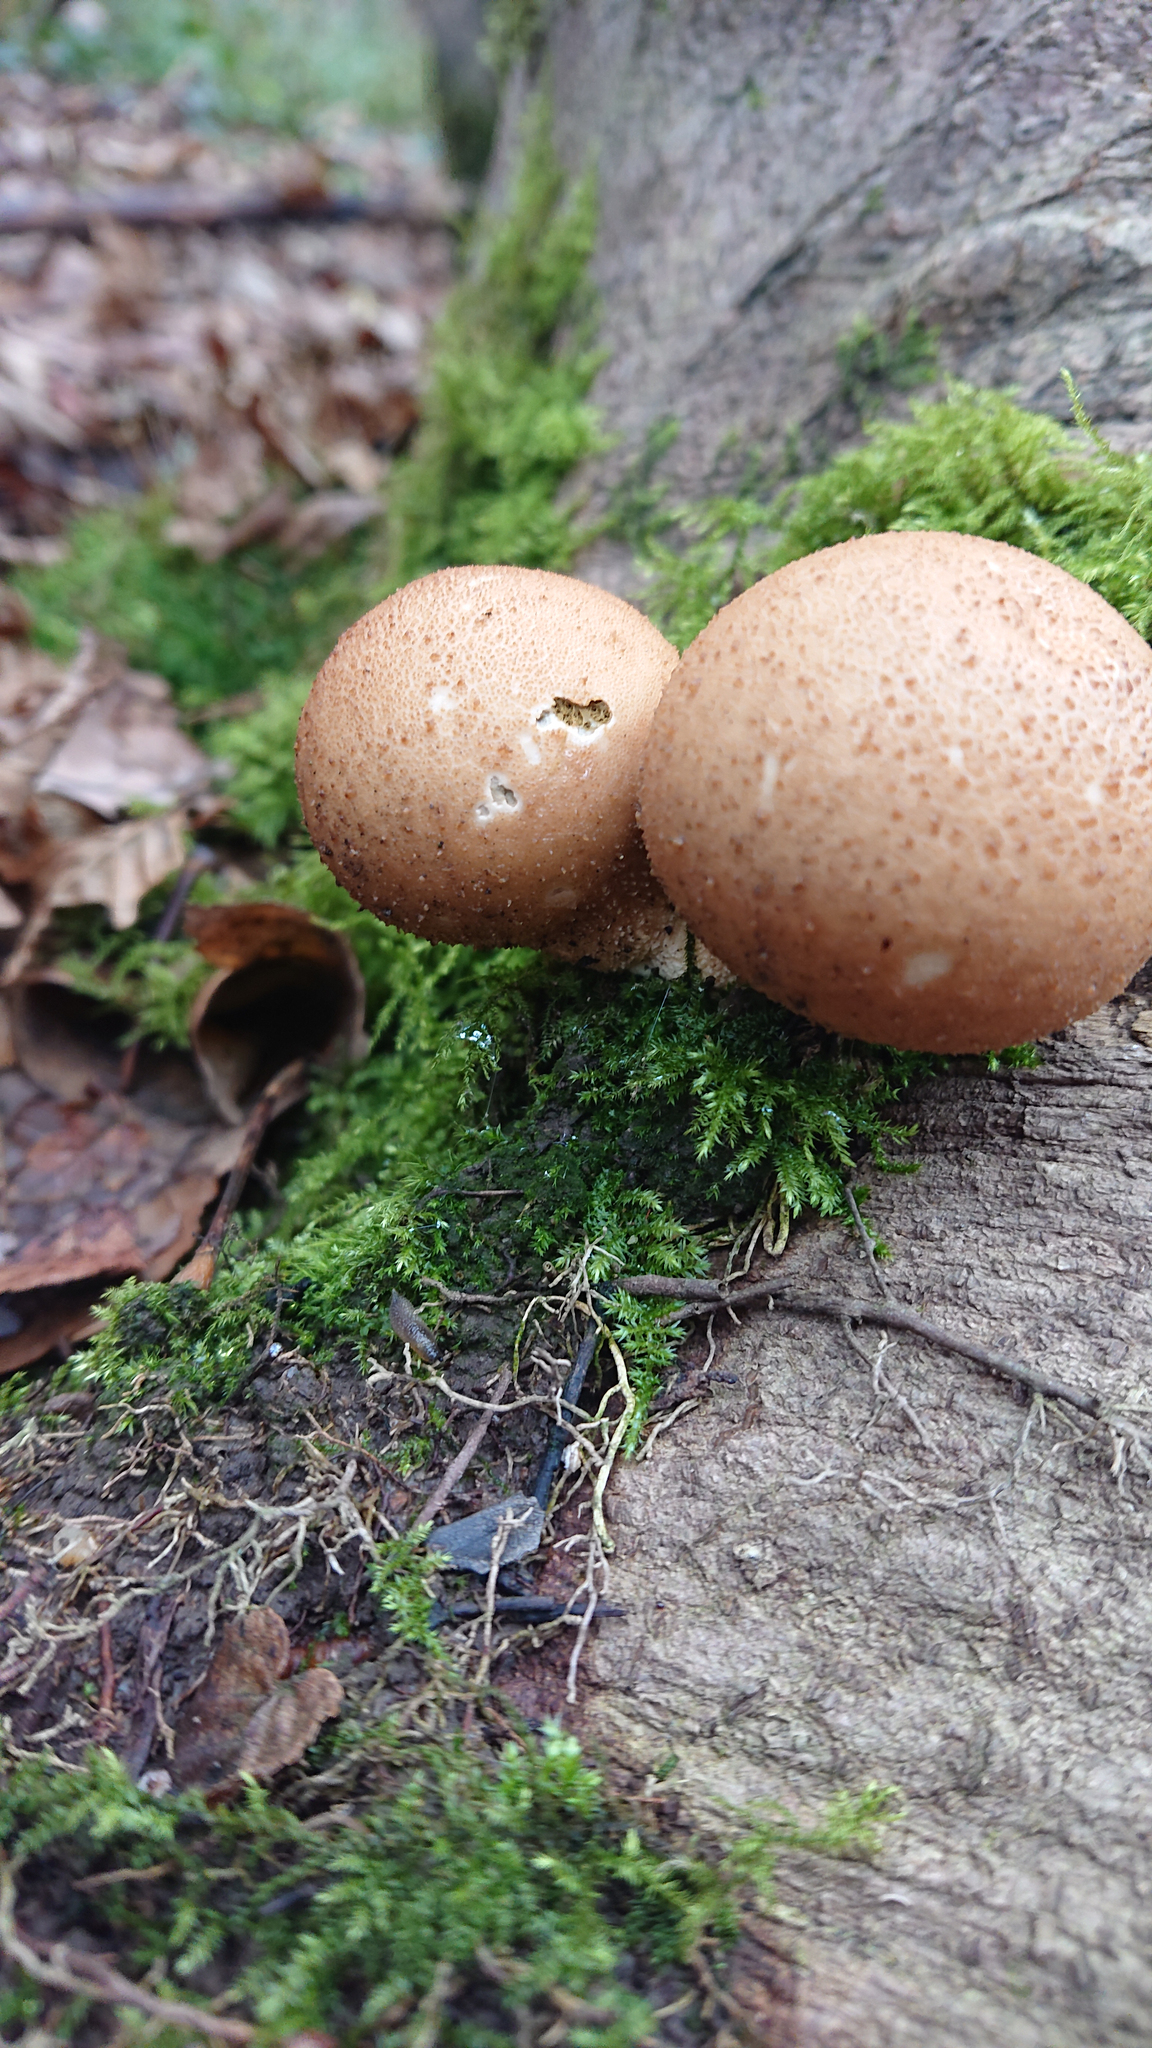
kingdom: Fungi
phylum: Basidiomycota
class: Agaricomycetes
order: Agaricales
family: Lycoperdaceae
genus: Apioperdon
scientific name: Apioperdon pyriforme
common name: Pear-shaped puffball
